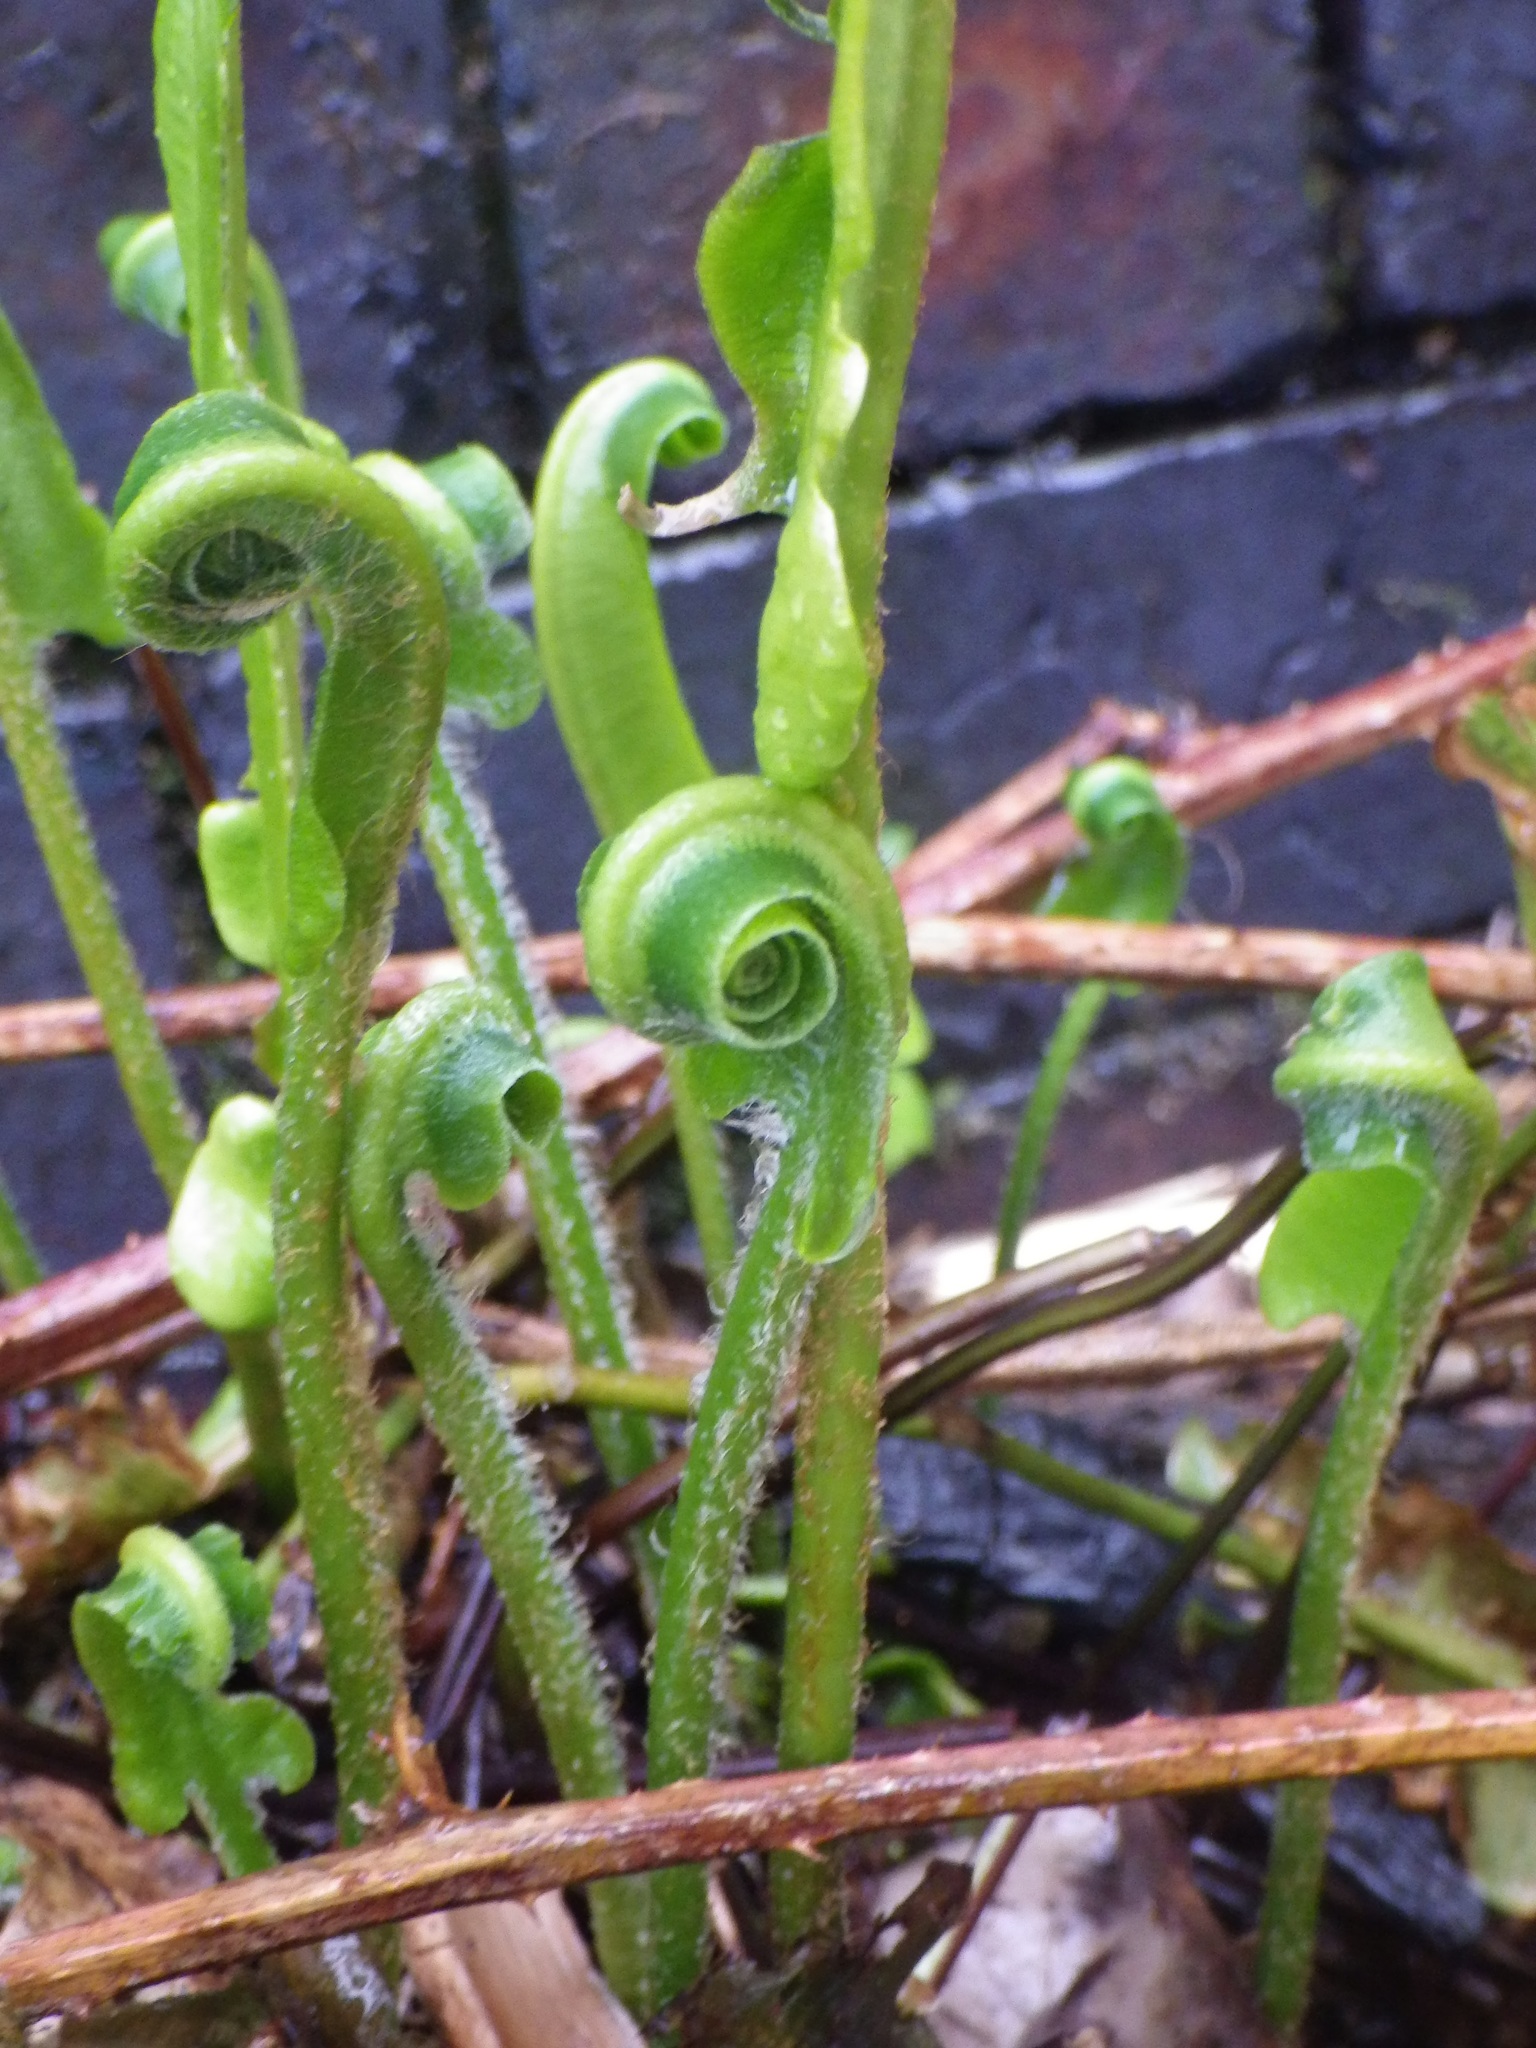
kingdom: Plantae
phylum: Tracheophyta
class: Polypodiopsida
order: Polypodiales
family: Aspleniaceae
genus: Asplenium
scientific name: Asplenium scolopendrium
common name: Hart's-tongue fern
